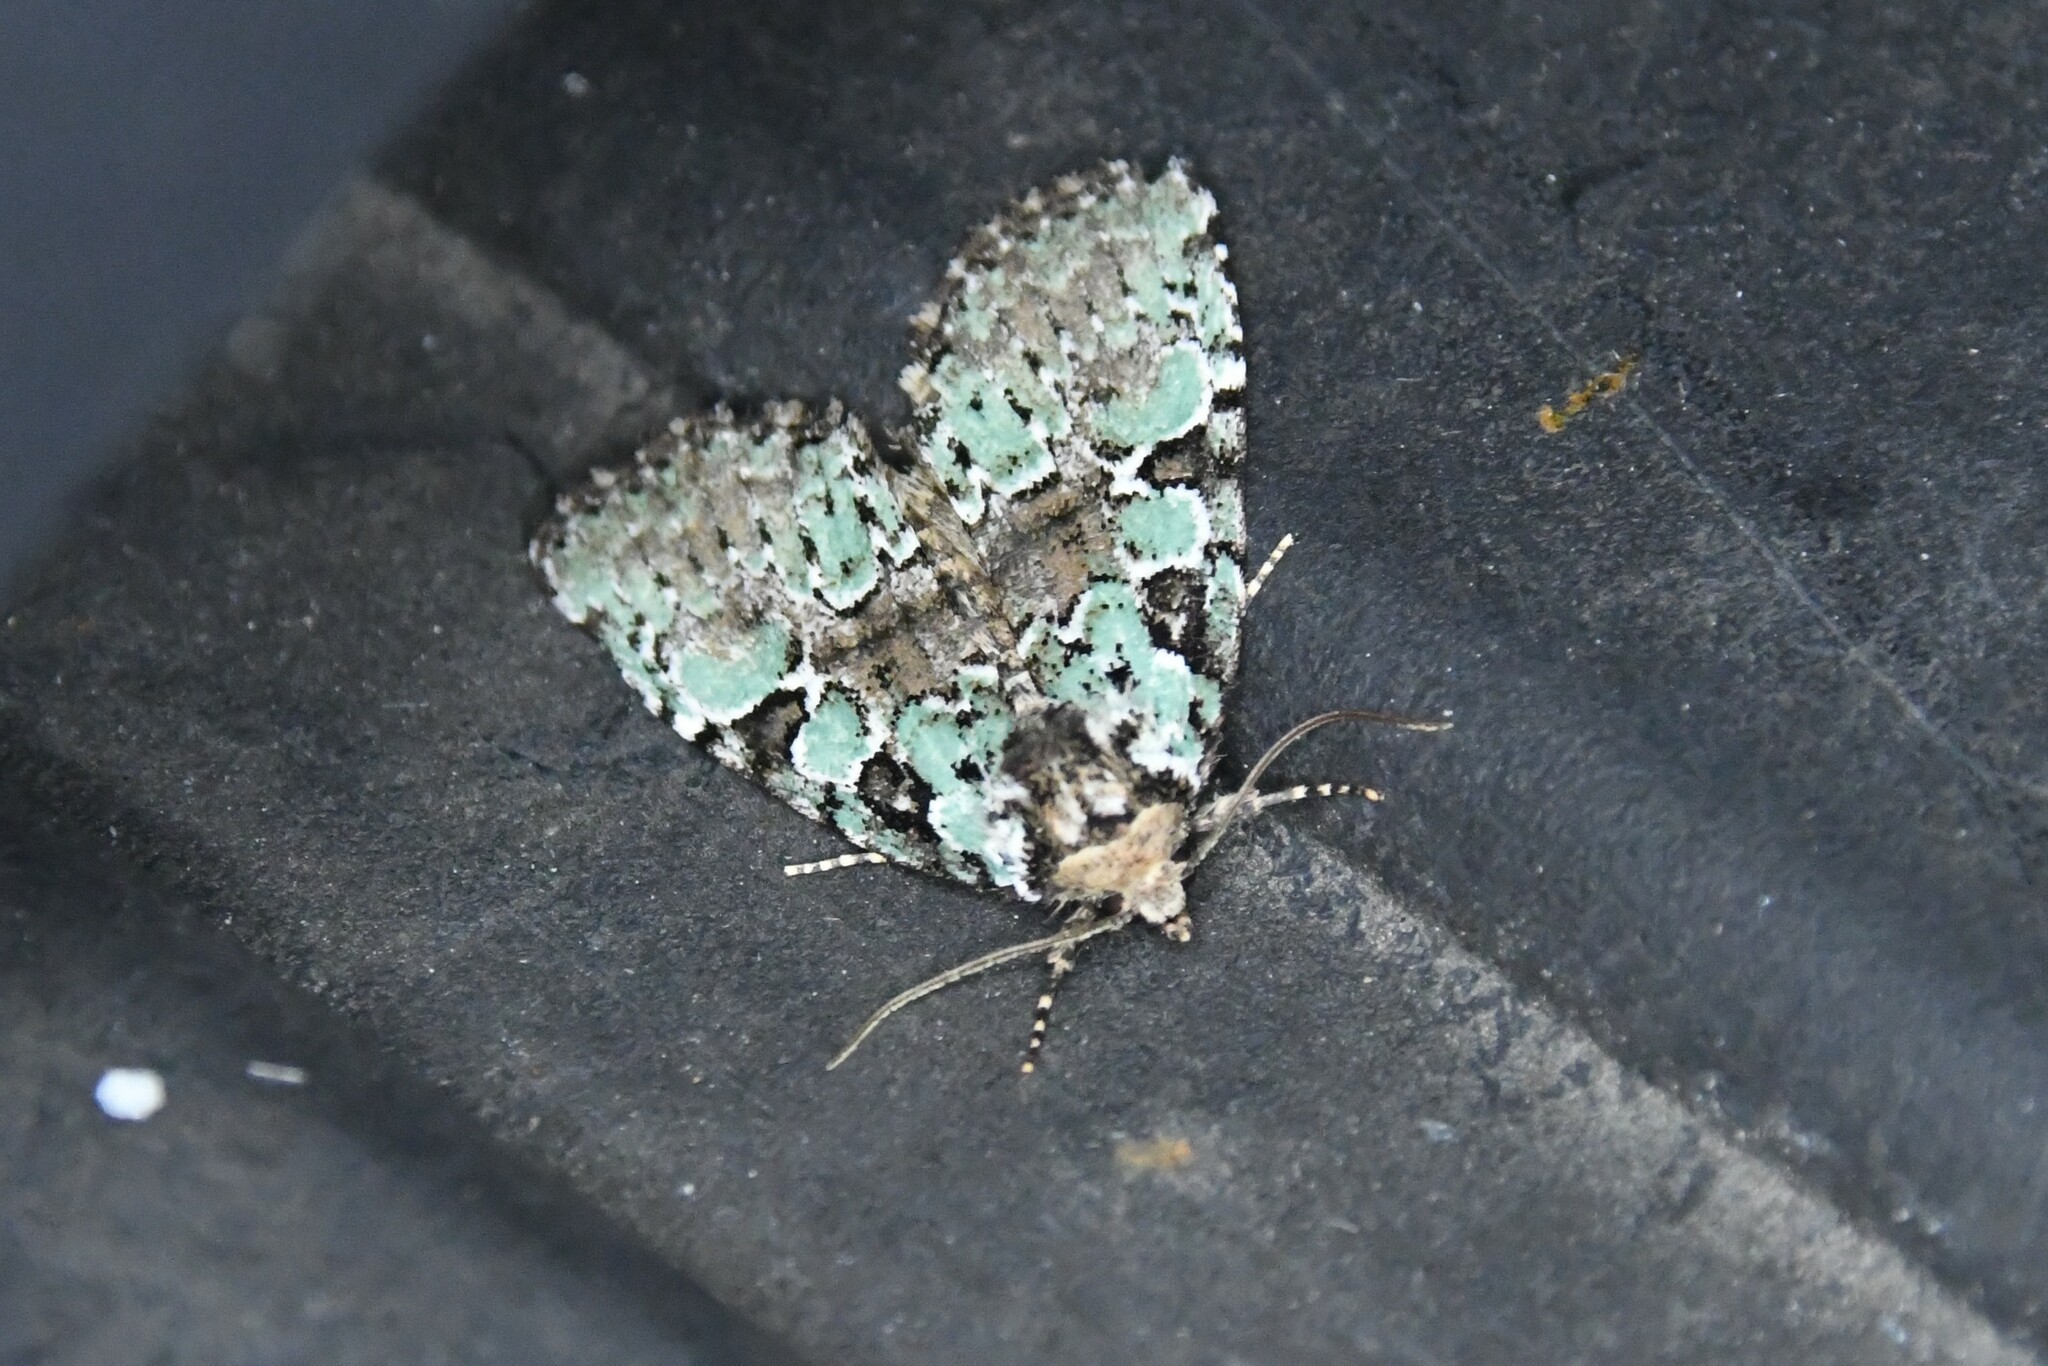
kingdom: Animalia
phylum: Arthropoda
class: Insecta
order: Lepidoptera
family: Noctuidae
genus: Leuconycta
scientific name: Leuconycta lepidula
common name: Marbled-green leuconycta moth
